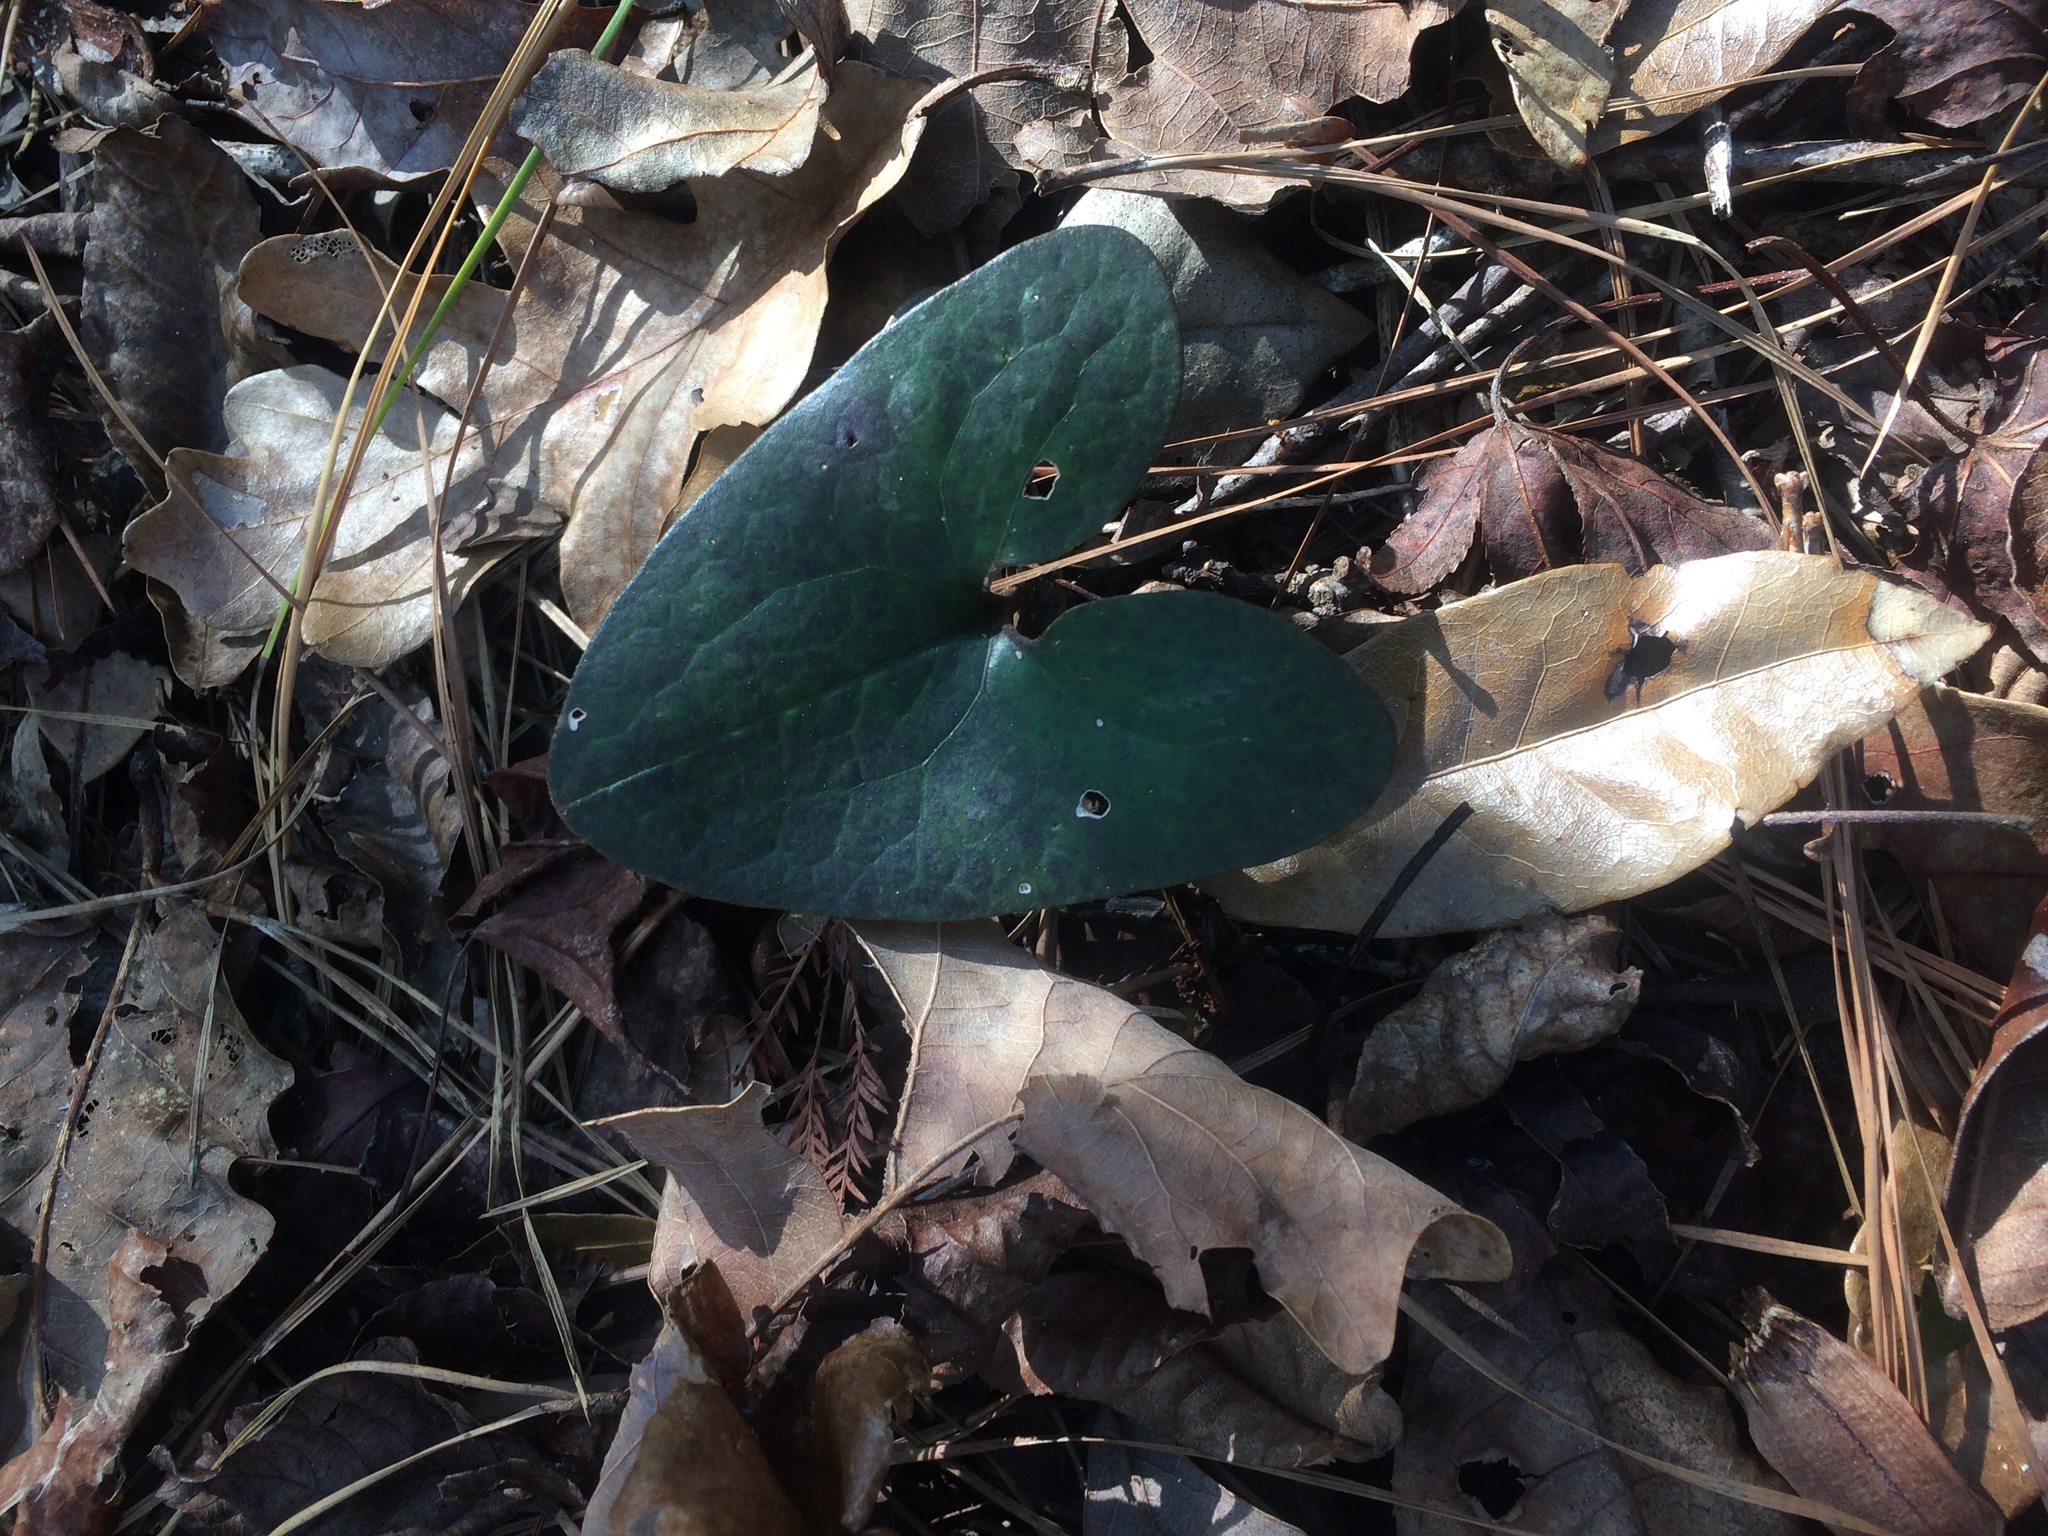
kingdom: Plantae
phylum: Tracheophyta
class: Magnoliopsida
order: Piperales
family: Aristolochiaceae
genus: Hexastylis
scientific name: Hexastylis arifolia
